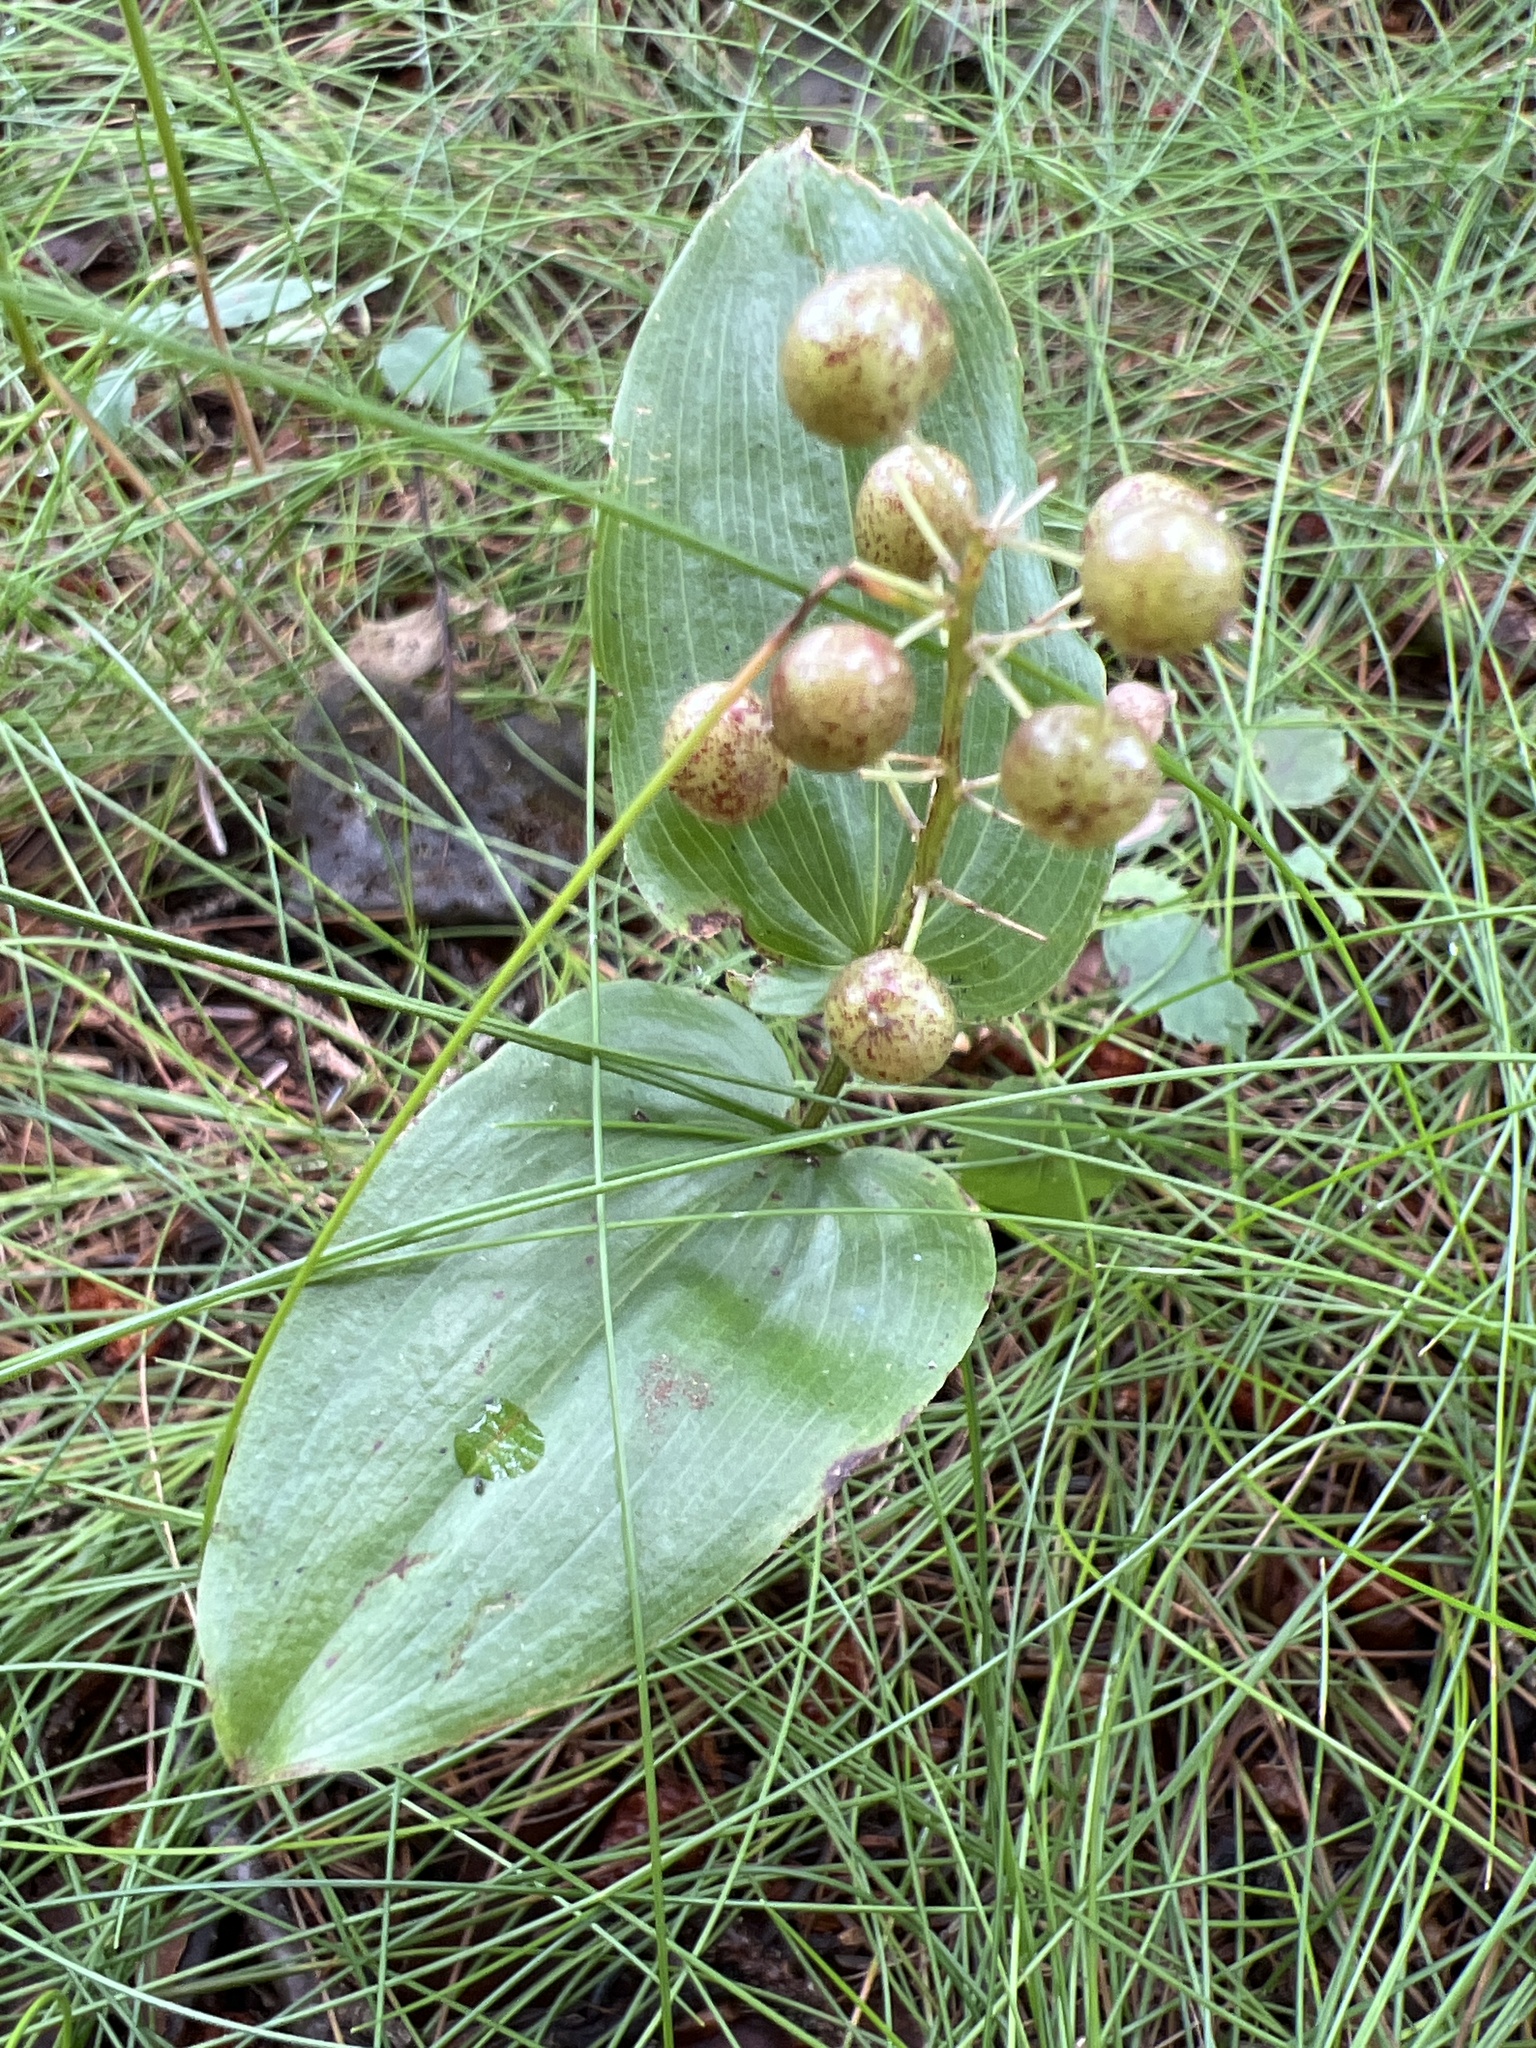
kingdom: Plantae
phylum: Tracheophyta
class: Liliopsida
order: Asparagales
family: Asparagaceae
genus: Maianthemum
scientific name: Maianthemum canadense
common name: False lily-of-the-valley
